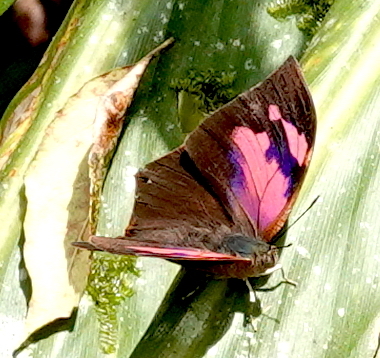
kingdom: Animalia
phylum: Arthropoda
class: Insecta
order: Lepidoptera
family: Nymphalidae
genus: Fountainea
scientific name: Fountainea
